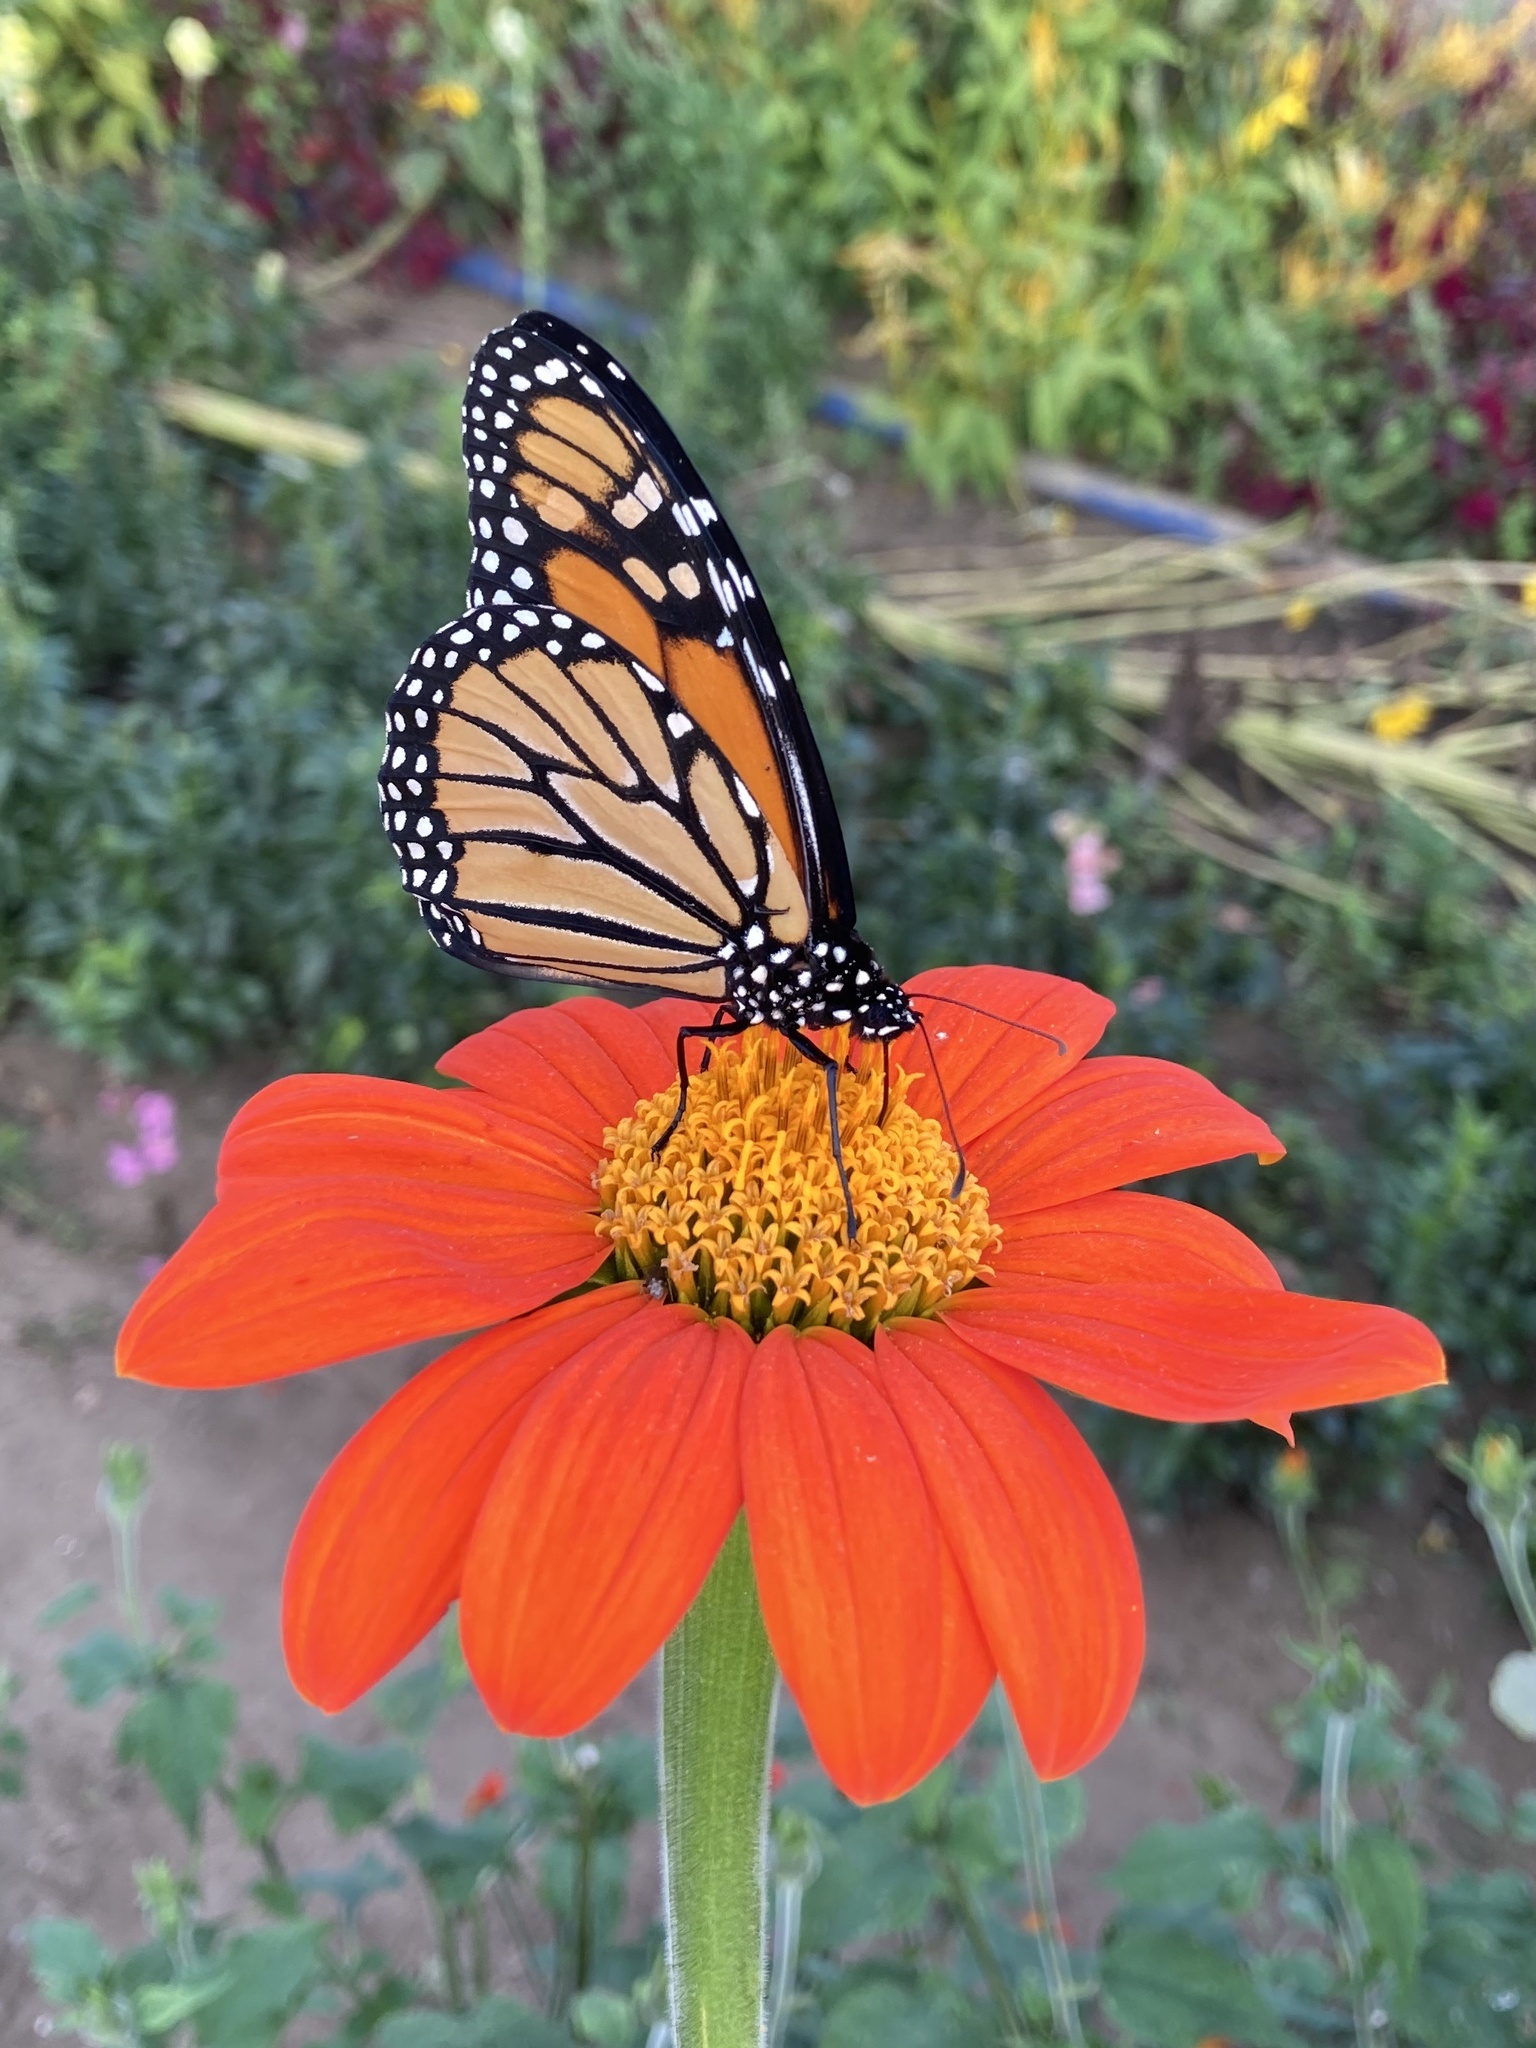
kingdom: Animalia
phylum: Arthropoda
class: Insecta
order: Lepidoptera
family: Nymphalidae
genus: Danaus
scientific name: Danaus plexippus
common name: Monarch
